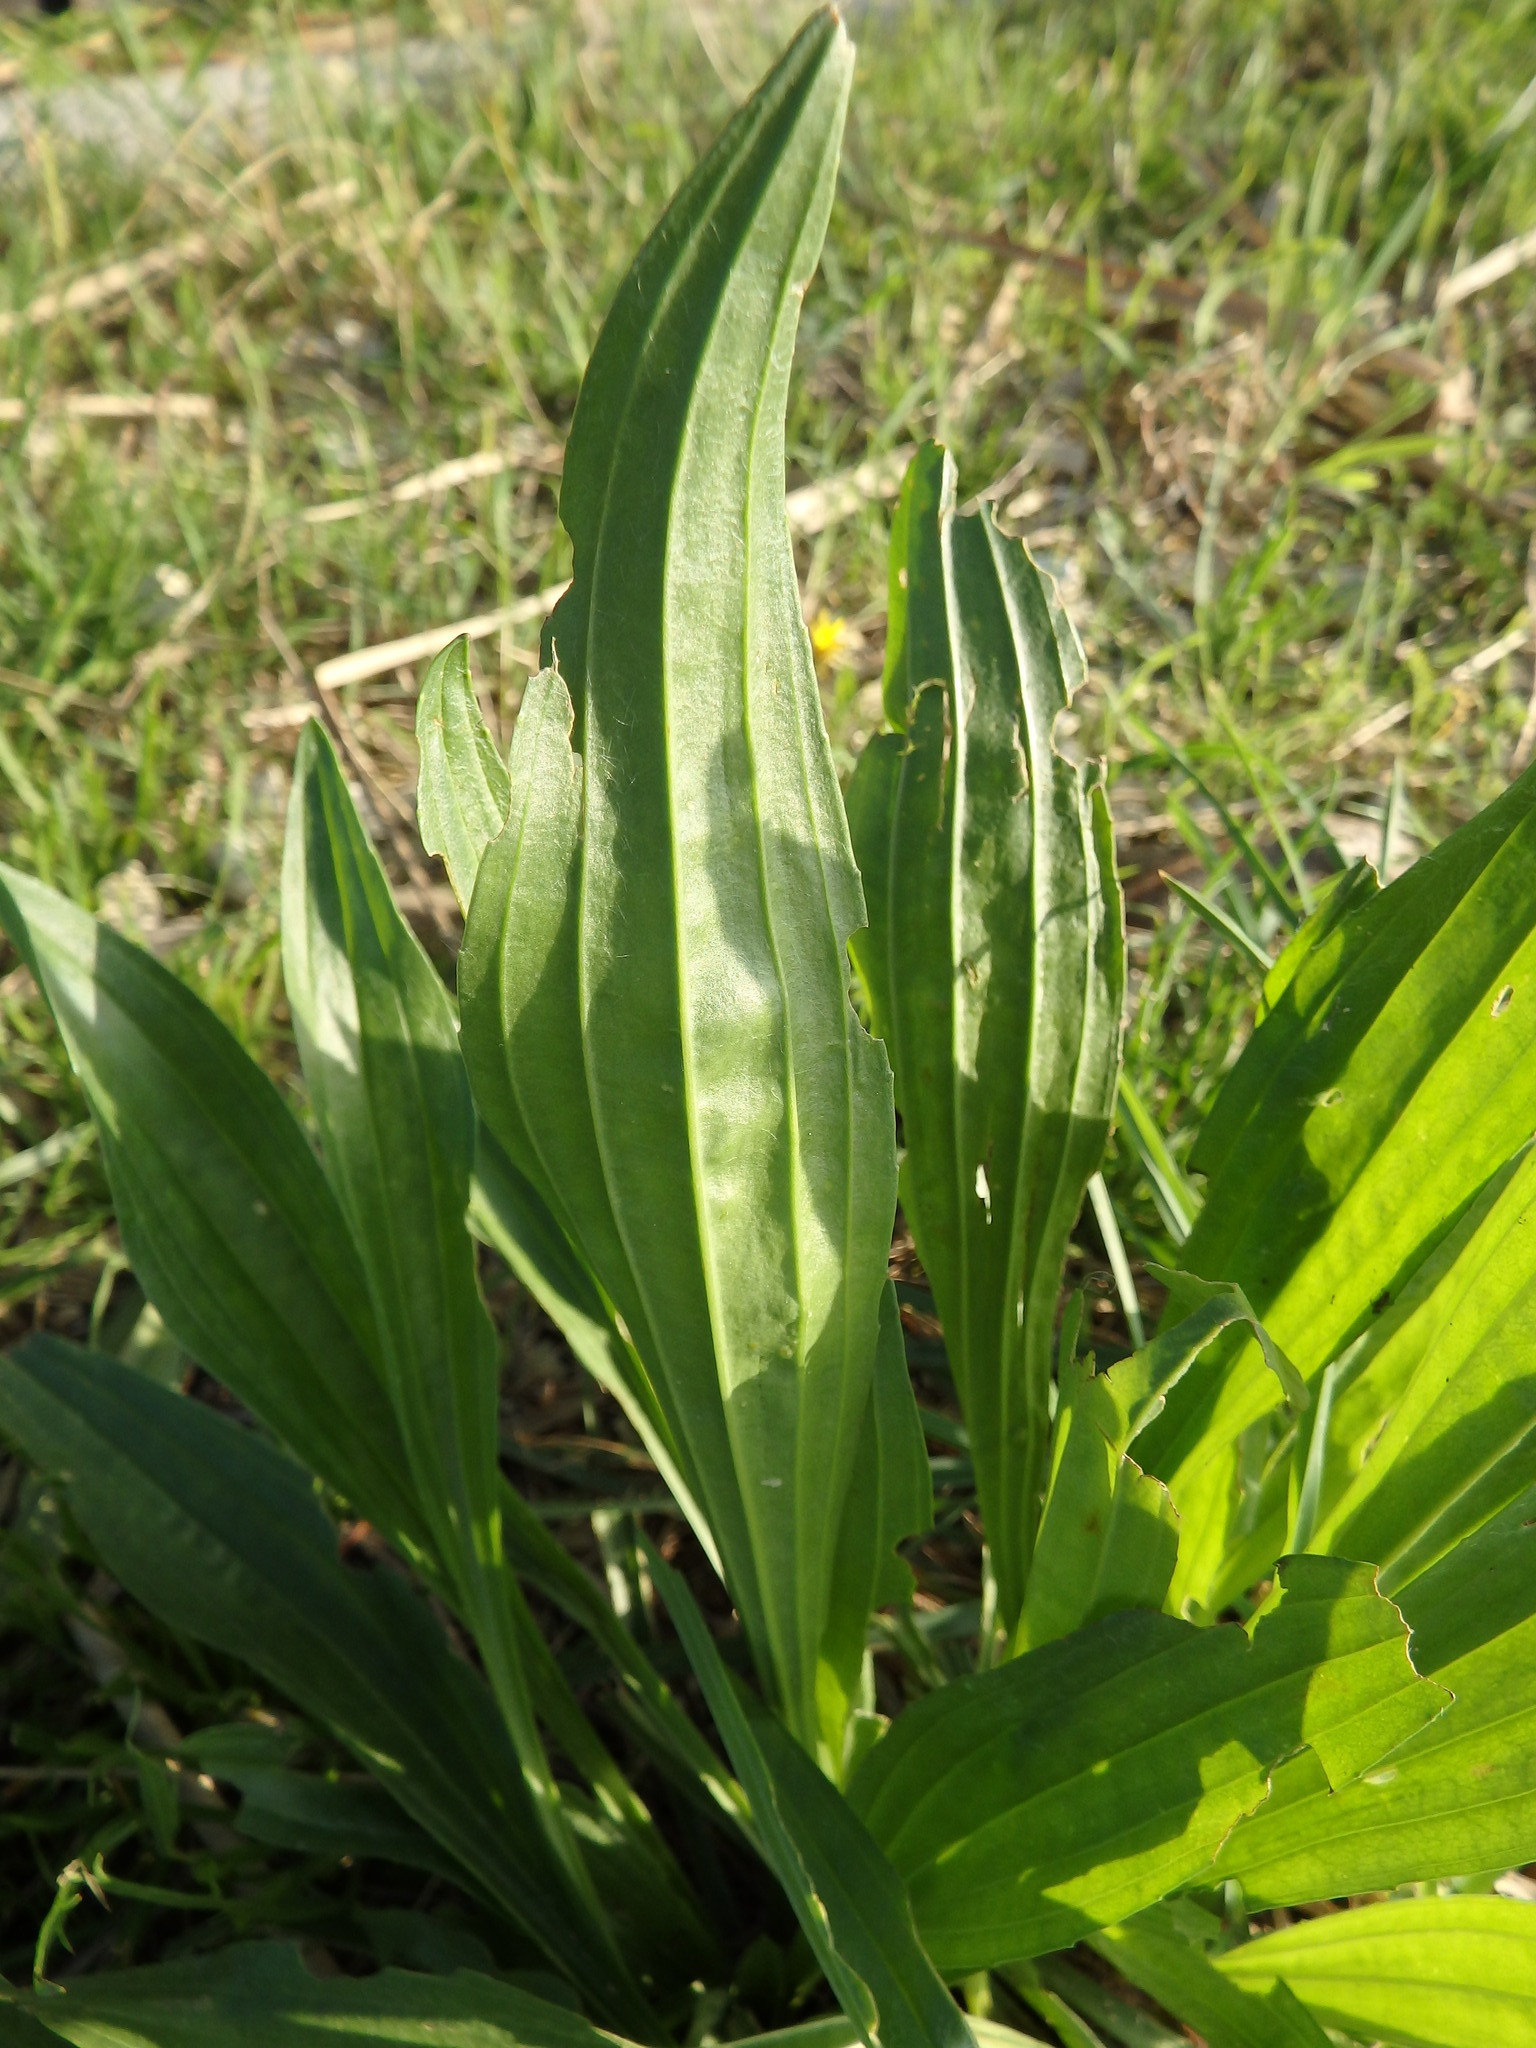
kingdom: Plantae
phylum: Tracheophyta
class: Magnoliopsida
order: Lamiales
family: Plantaginaceae
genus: Plantago
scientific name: Plantago lanceolata
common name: Ribwort plantain
